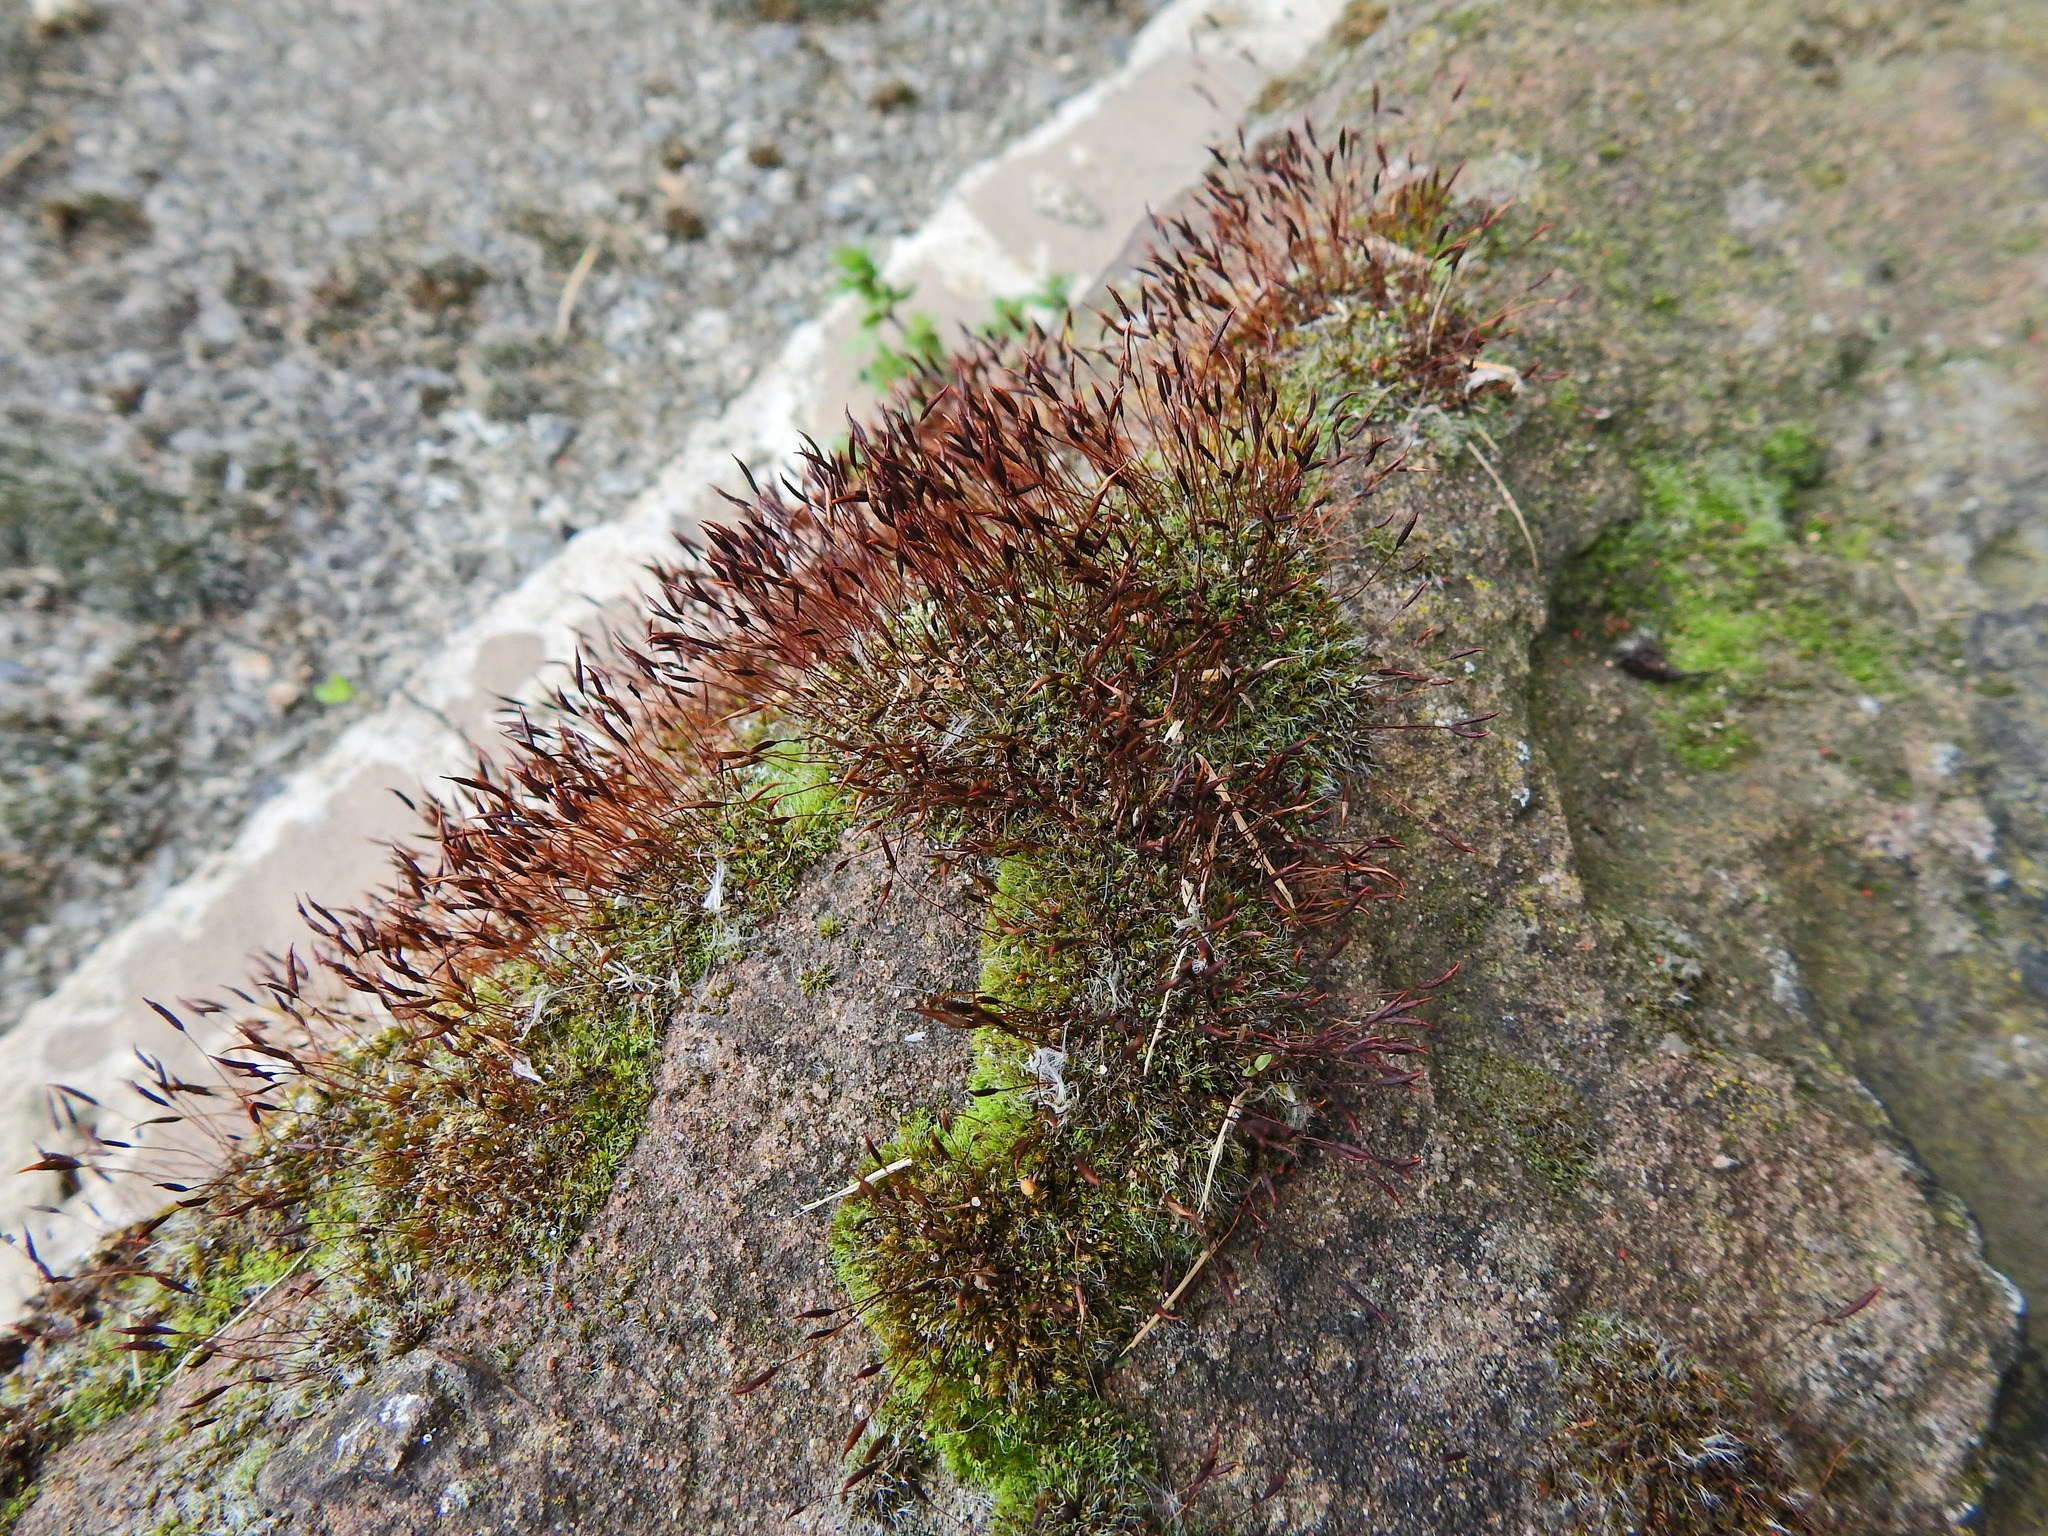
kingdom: Plantae
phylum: Bryophyta
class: Bryopsida
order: Pottiales
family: Pottiaceae
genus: Tortula
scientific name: Tortula muralis
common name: Wall screw-moss
